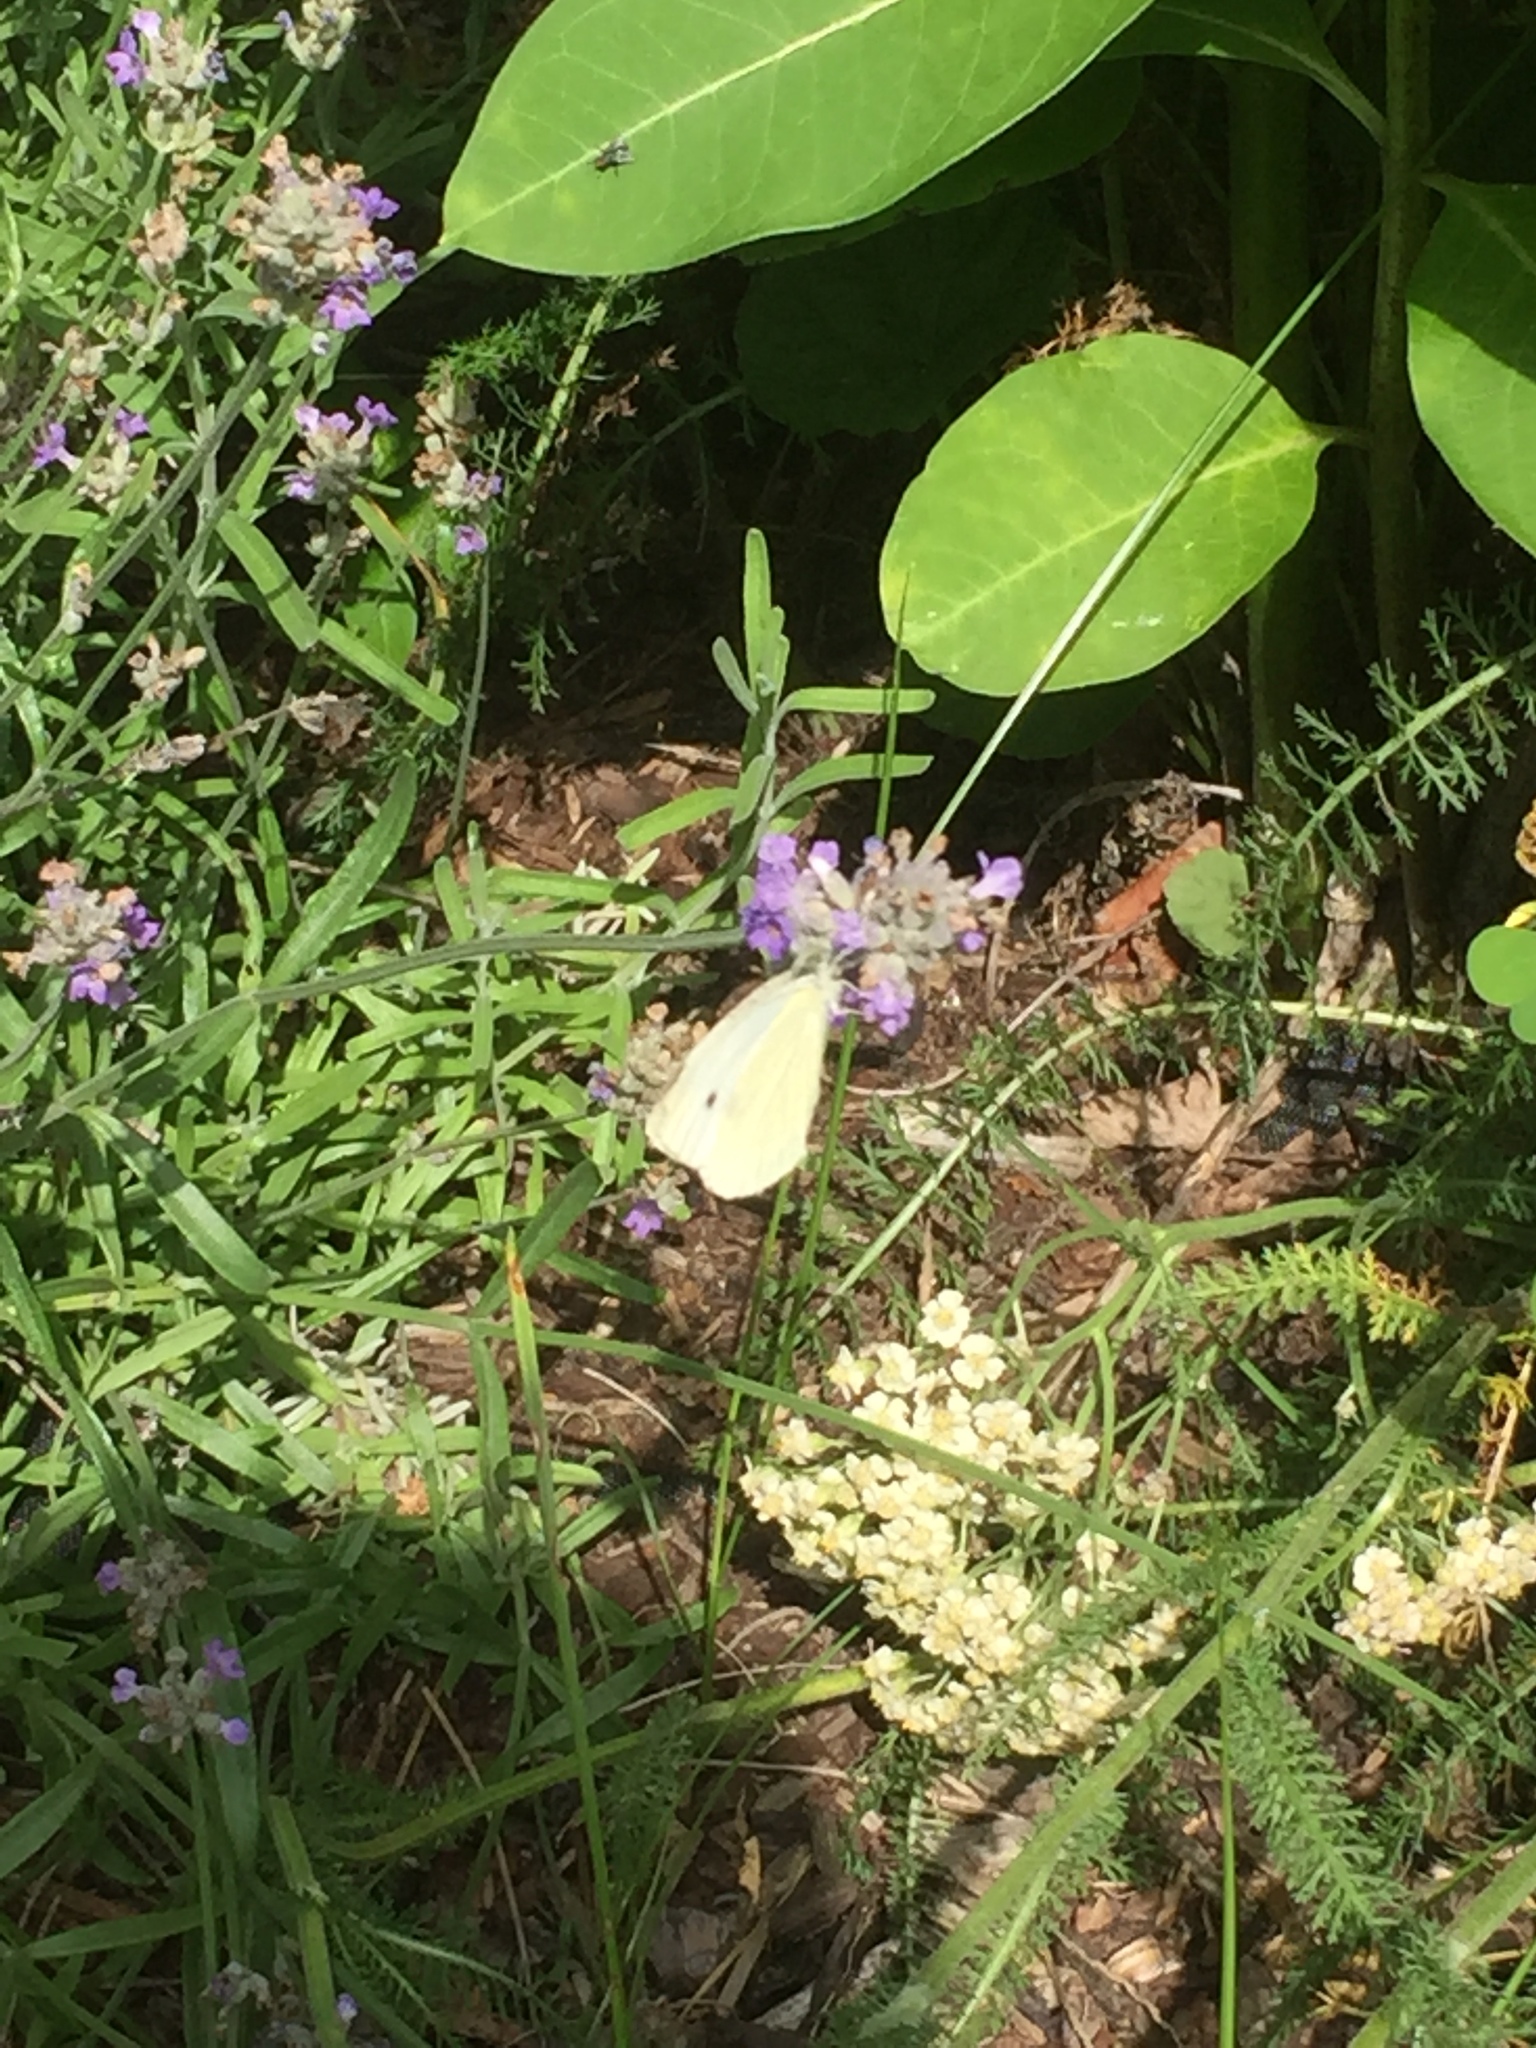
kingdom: Animalia
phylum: Arthropoda
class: Insecta
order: Lepidoptera
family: Pieridae
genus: Pieris
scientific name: Pieris rapae
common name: Small white
